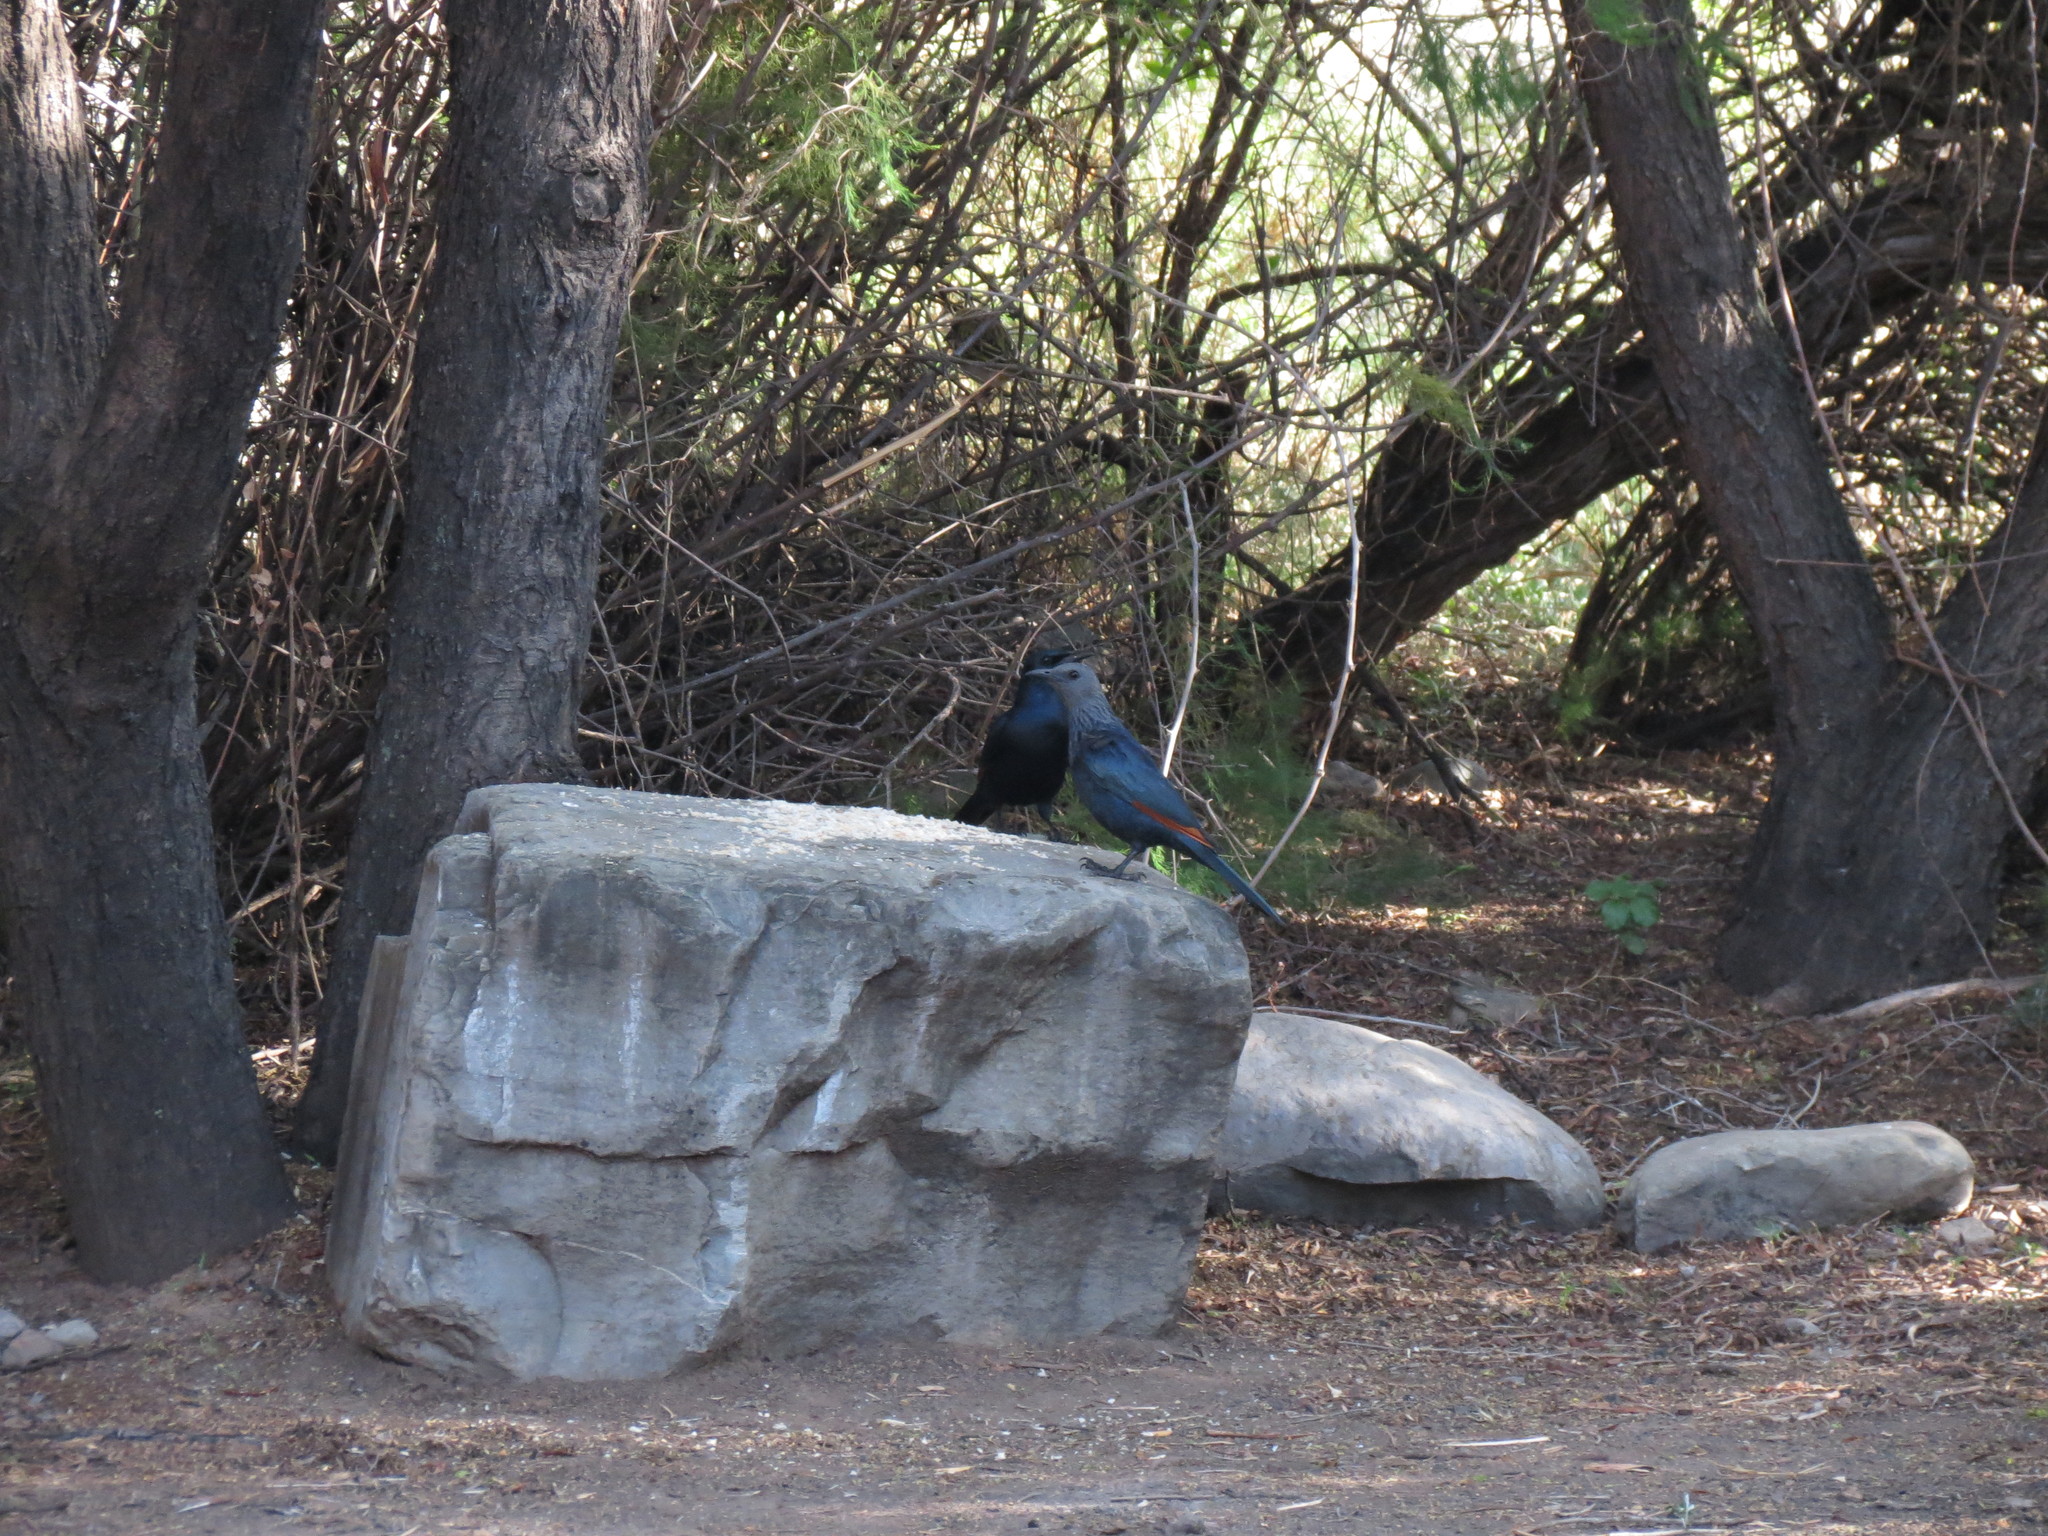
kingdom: Animalia
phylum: Chordata
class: Aves
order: Passeriformes
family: Sturnidae
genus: Onychognathus
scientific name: Onychognathus morio
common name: Red-winged starling
